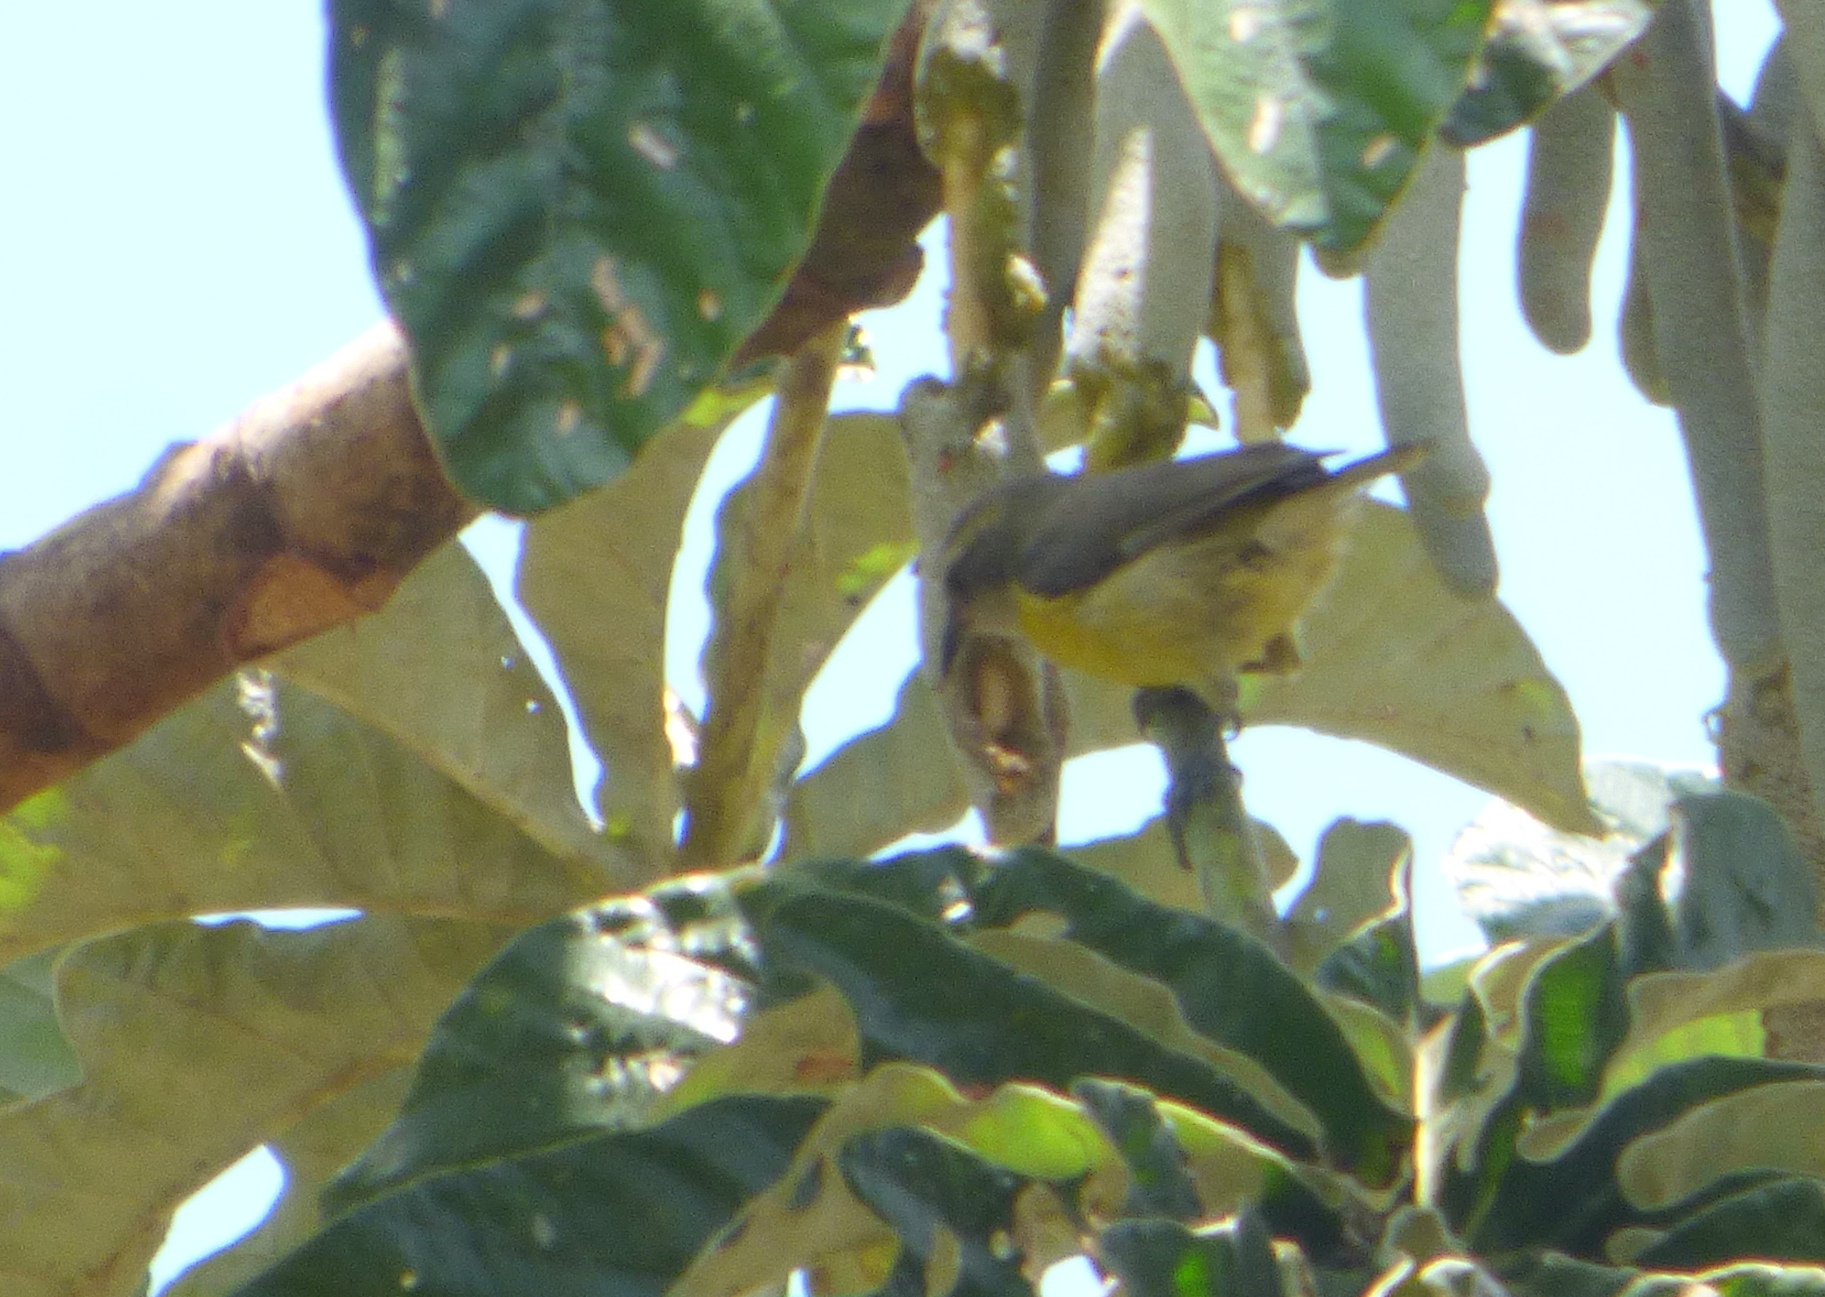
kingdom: Animalia
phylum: Chordata
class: Aves
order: Passeriformes
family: Thraupidae
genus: Coereba
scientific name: Coereba flaveola
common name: Bananaquit
